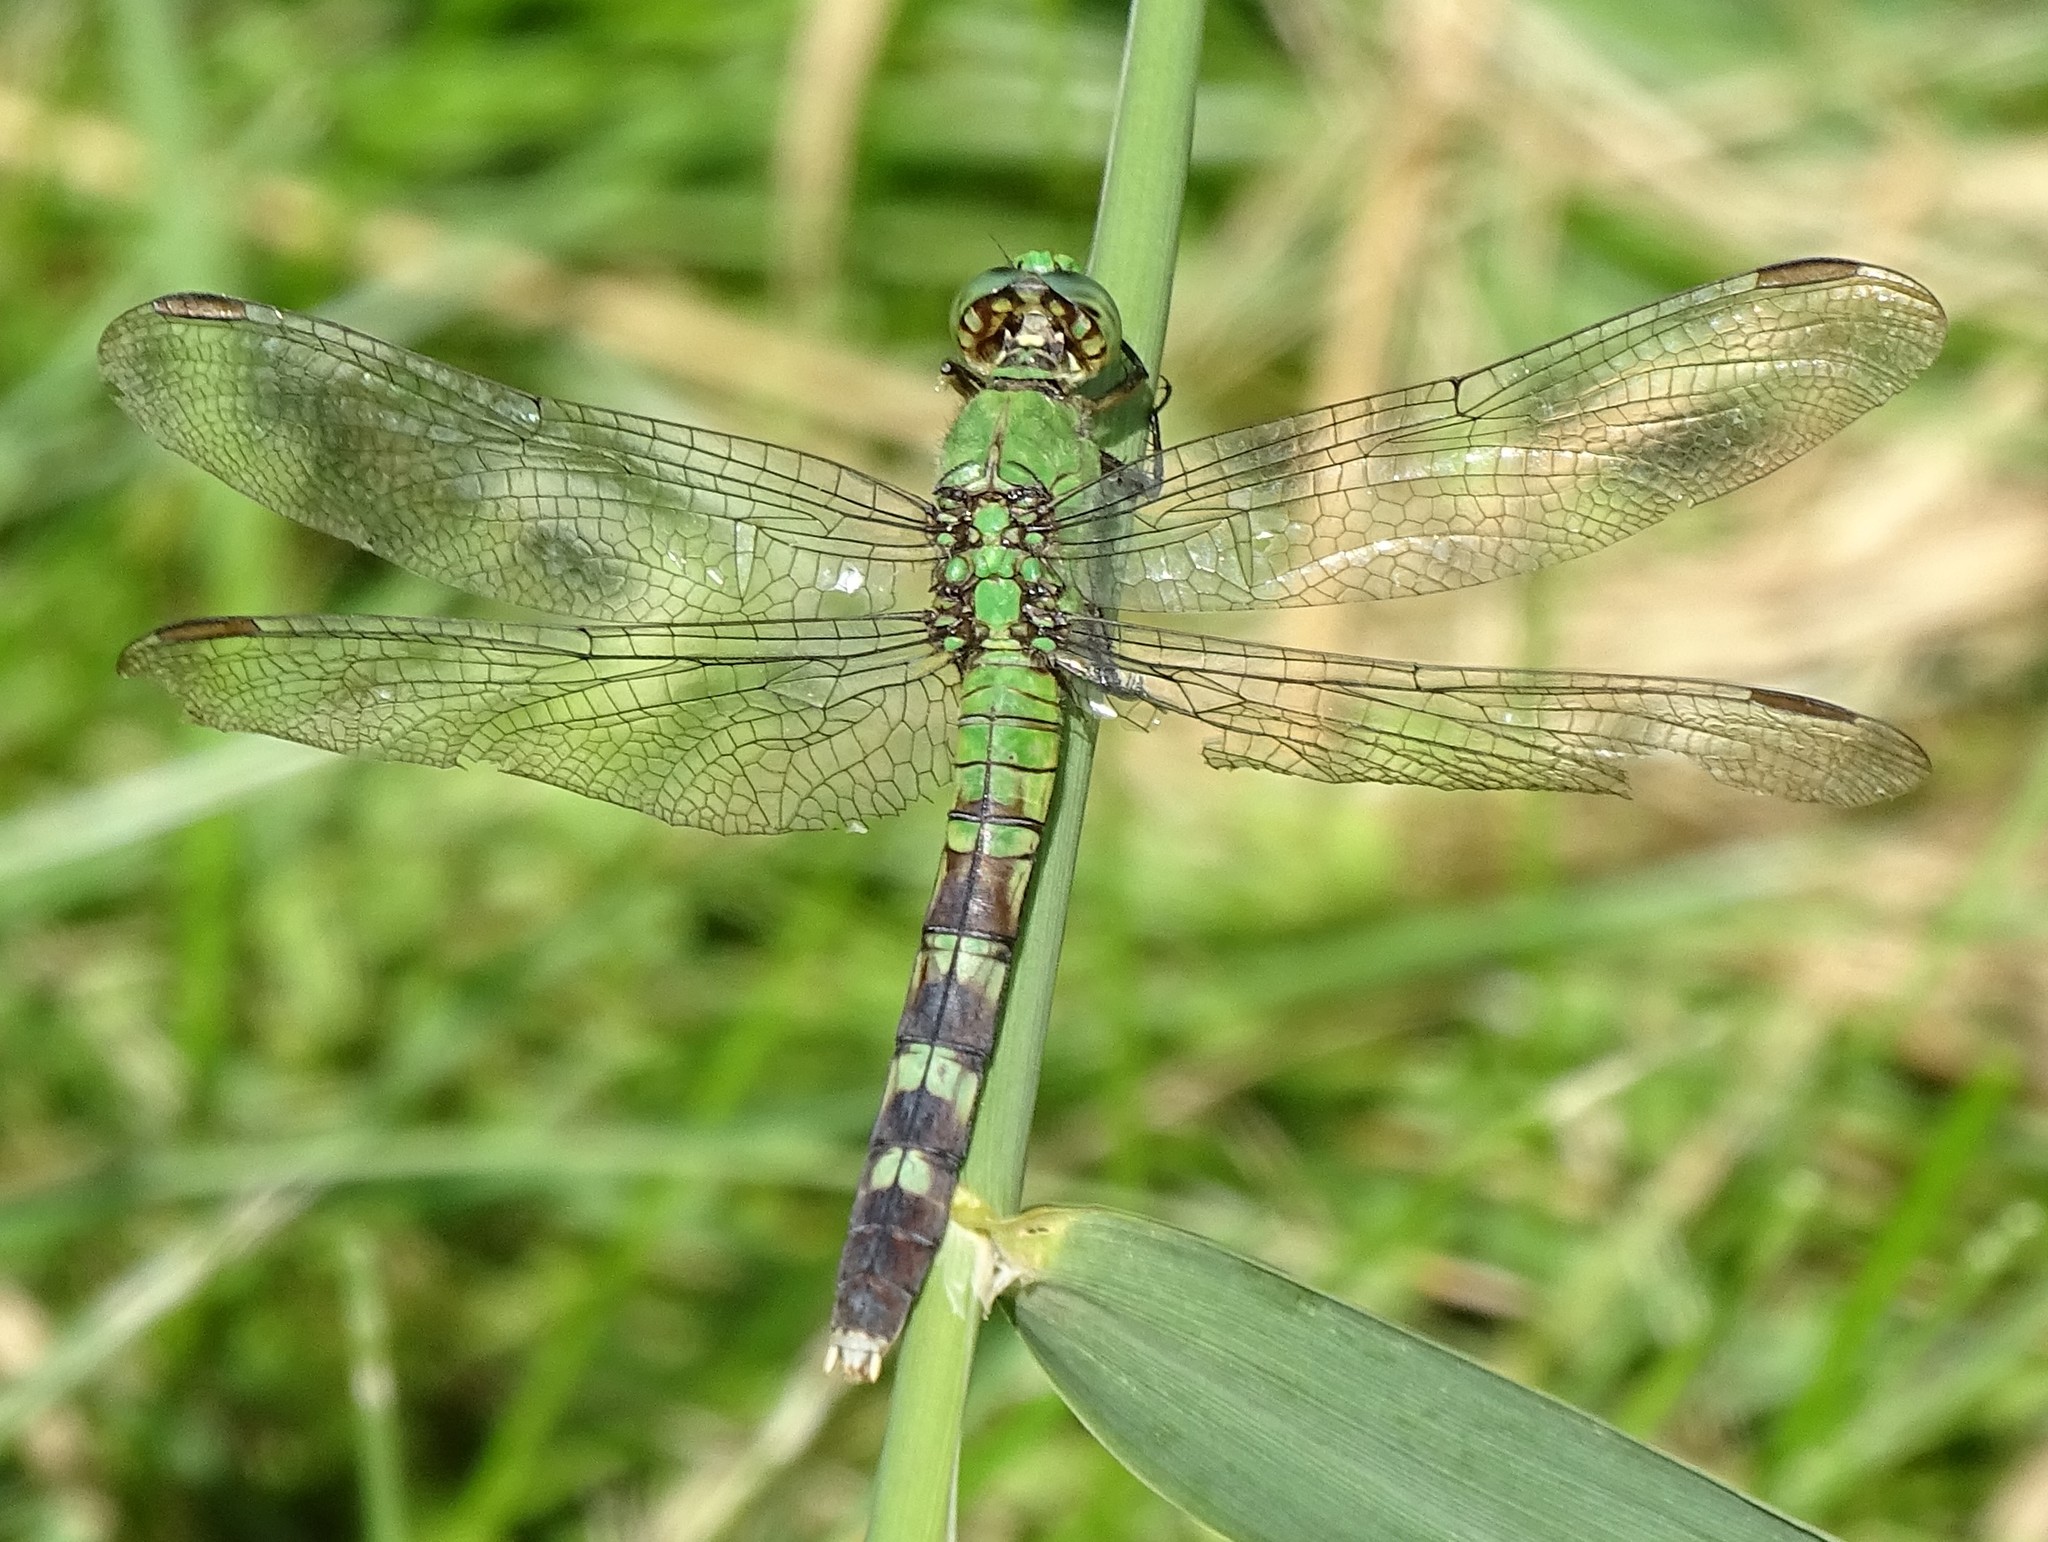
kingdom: Animalia
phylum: Arthropoda
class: Insecta
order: Odonata
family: Libellulidae
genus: Erythemis
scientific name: Erythemis simplicicollis
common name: Eastern pondhawk
